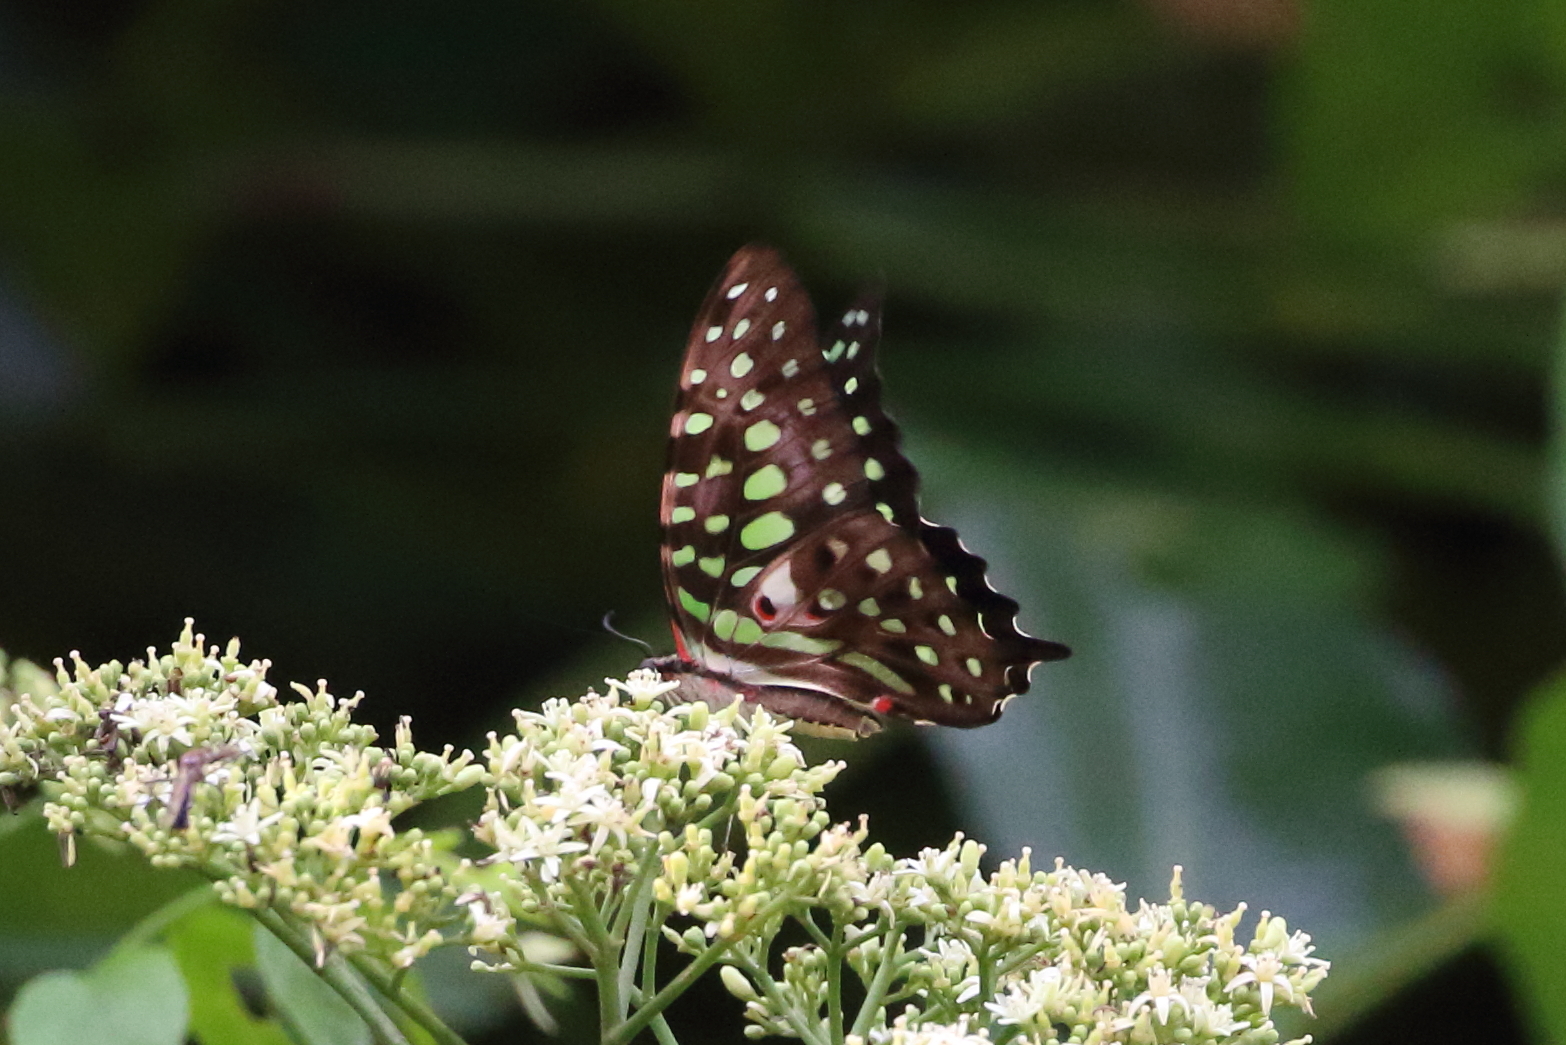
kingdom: Animalia
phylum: Arthropoda
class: Insecta
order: Lepidoptera
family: Papilionidae
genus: Graphium
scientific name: Graphium agamemnon
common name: Tailed jay
